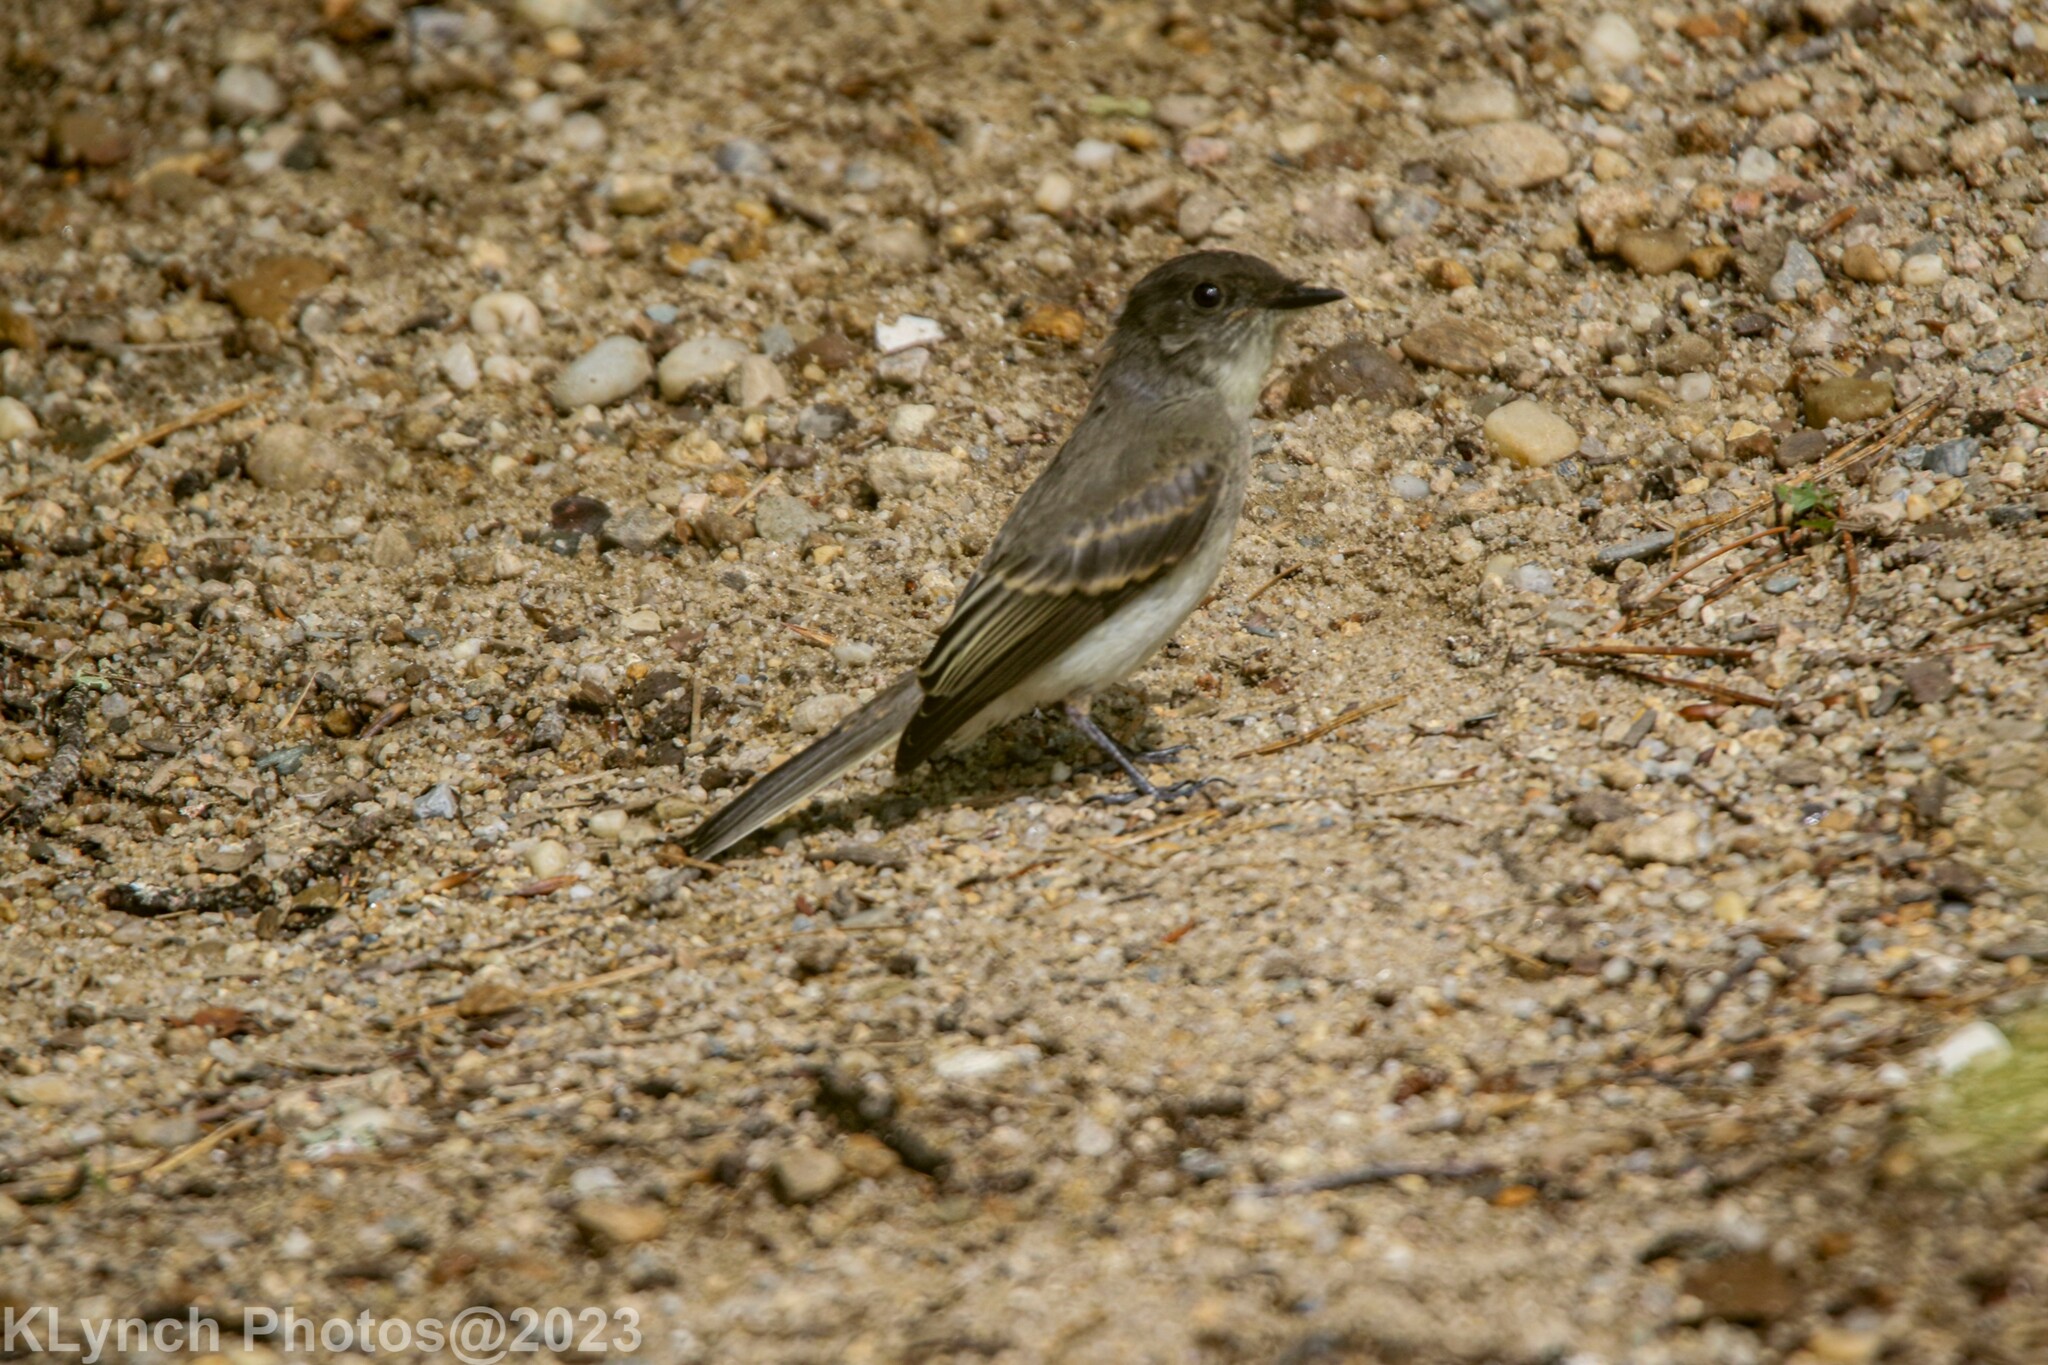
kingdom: Animalia
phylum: Chordata
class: Aves
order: Passeriformes
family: Tyrannidae
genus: Sayornis
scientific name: Sayornis phoebe
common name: Eastern phoebe
